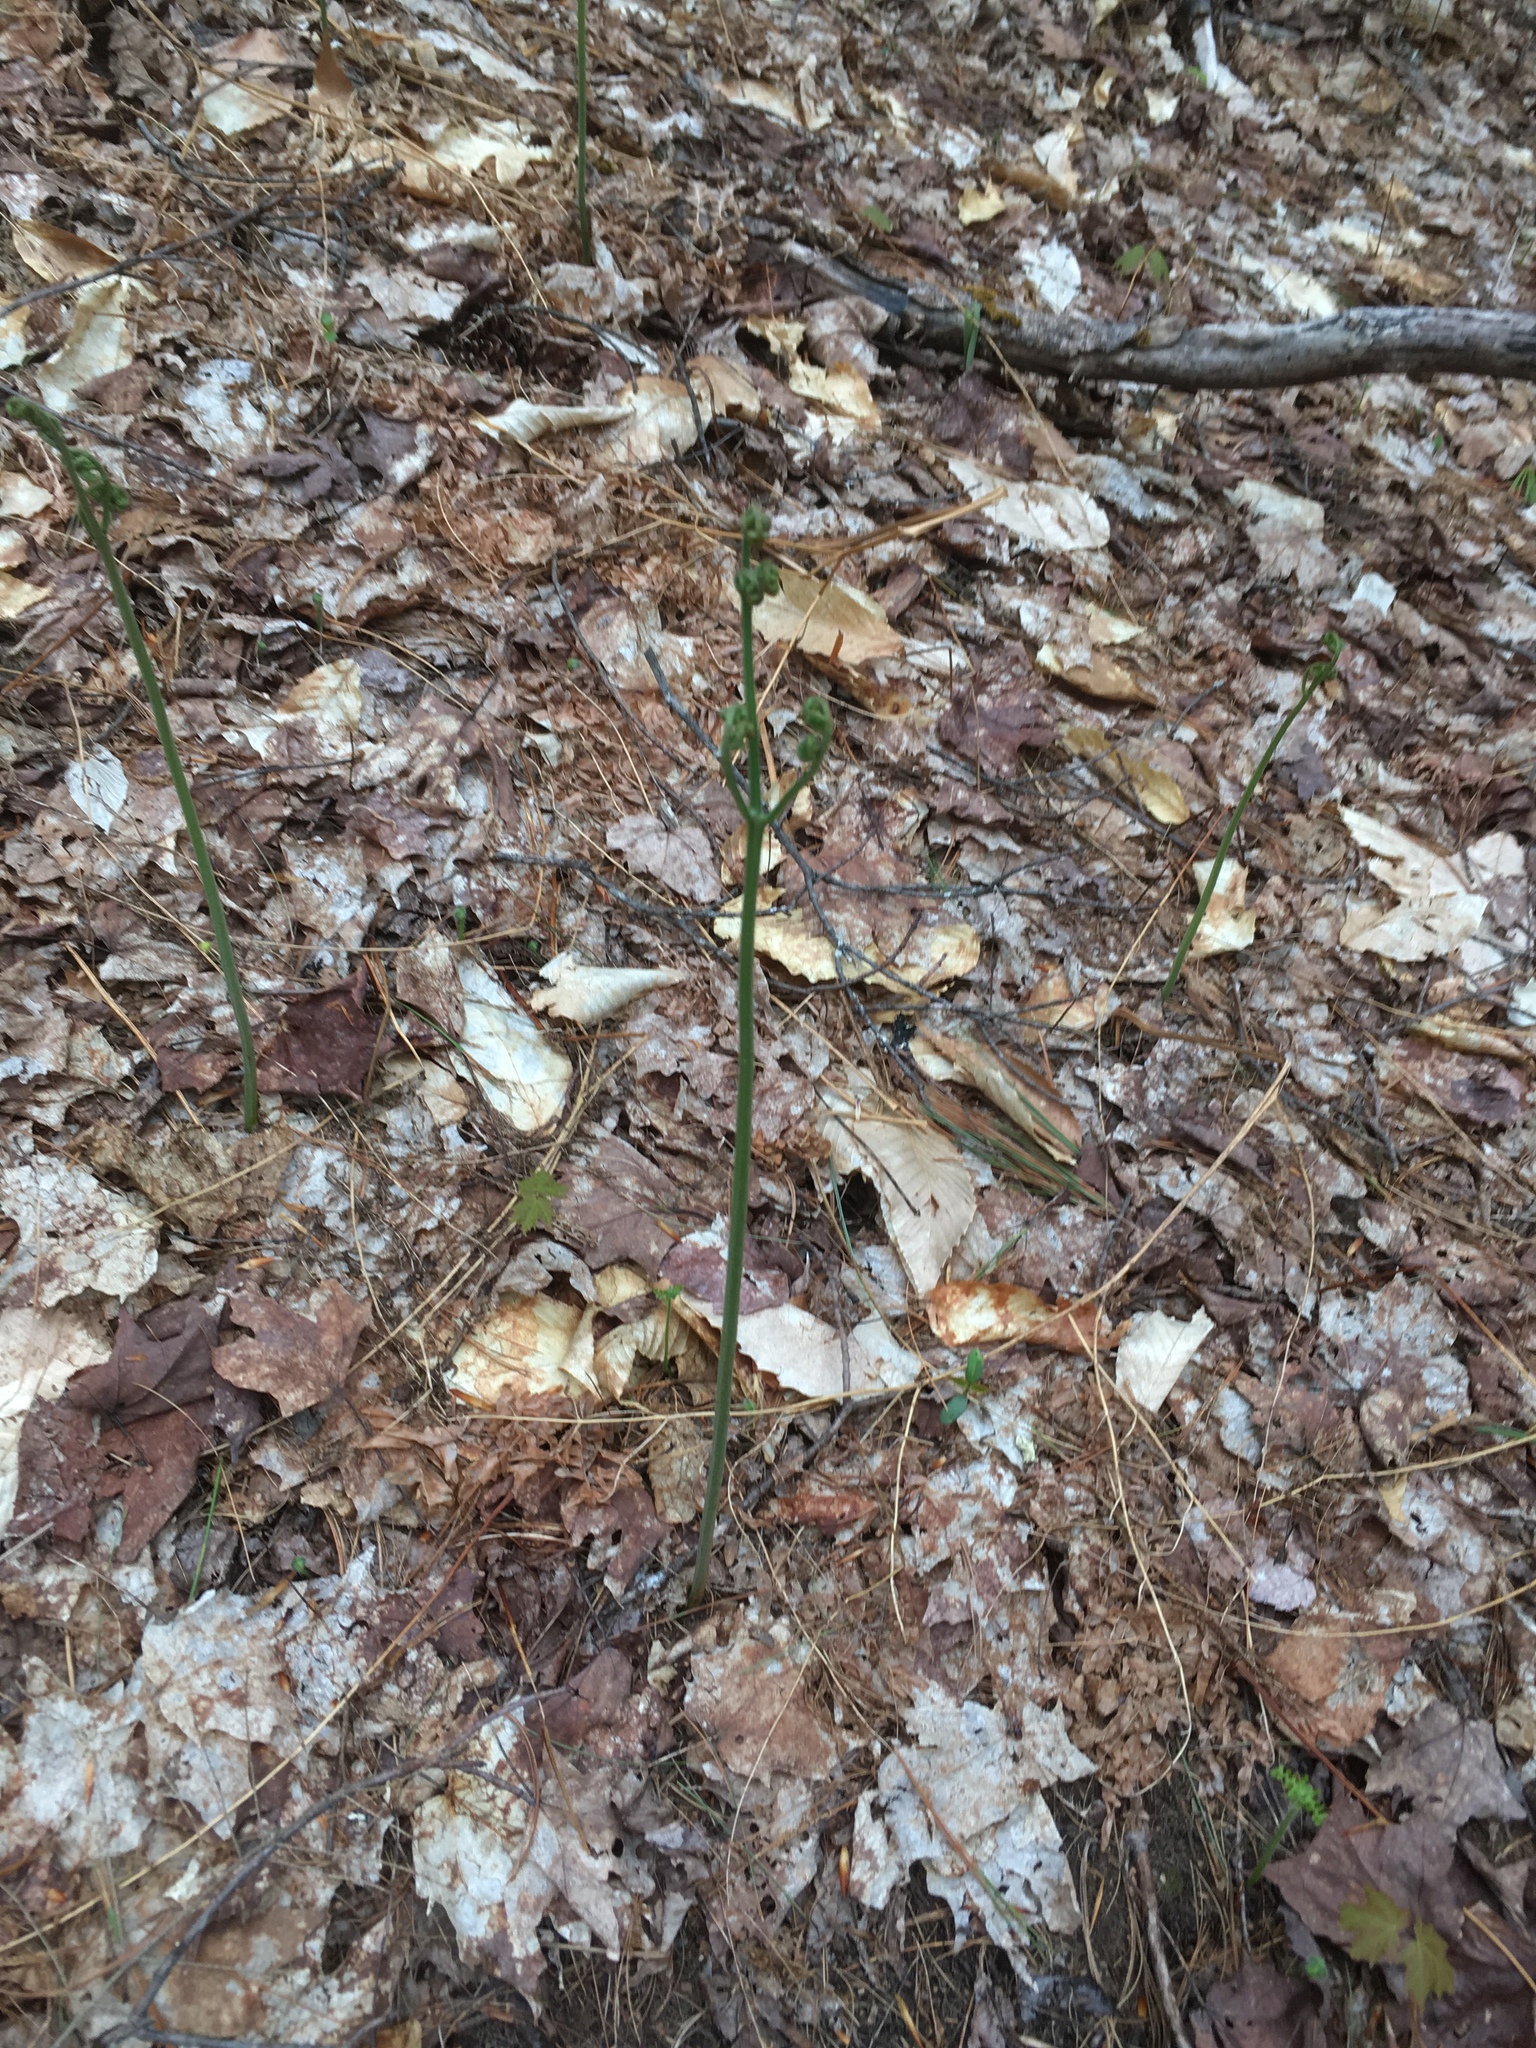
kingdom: Plantae
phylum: Tracheophyta
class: Polypodiopsida
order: Polypodiales
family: Dennstaedtiaceae
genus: Pteridium
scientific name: Pteridium aquilinum
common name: Bracken
